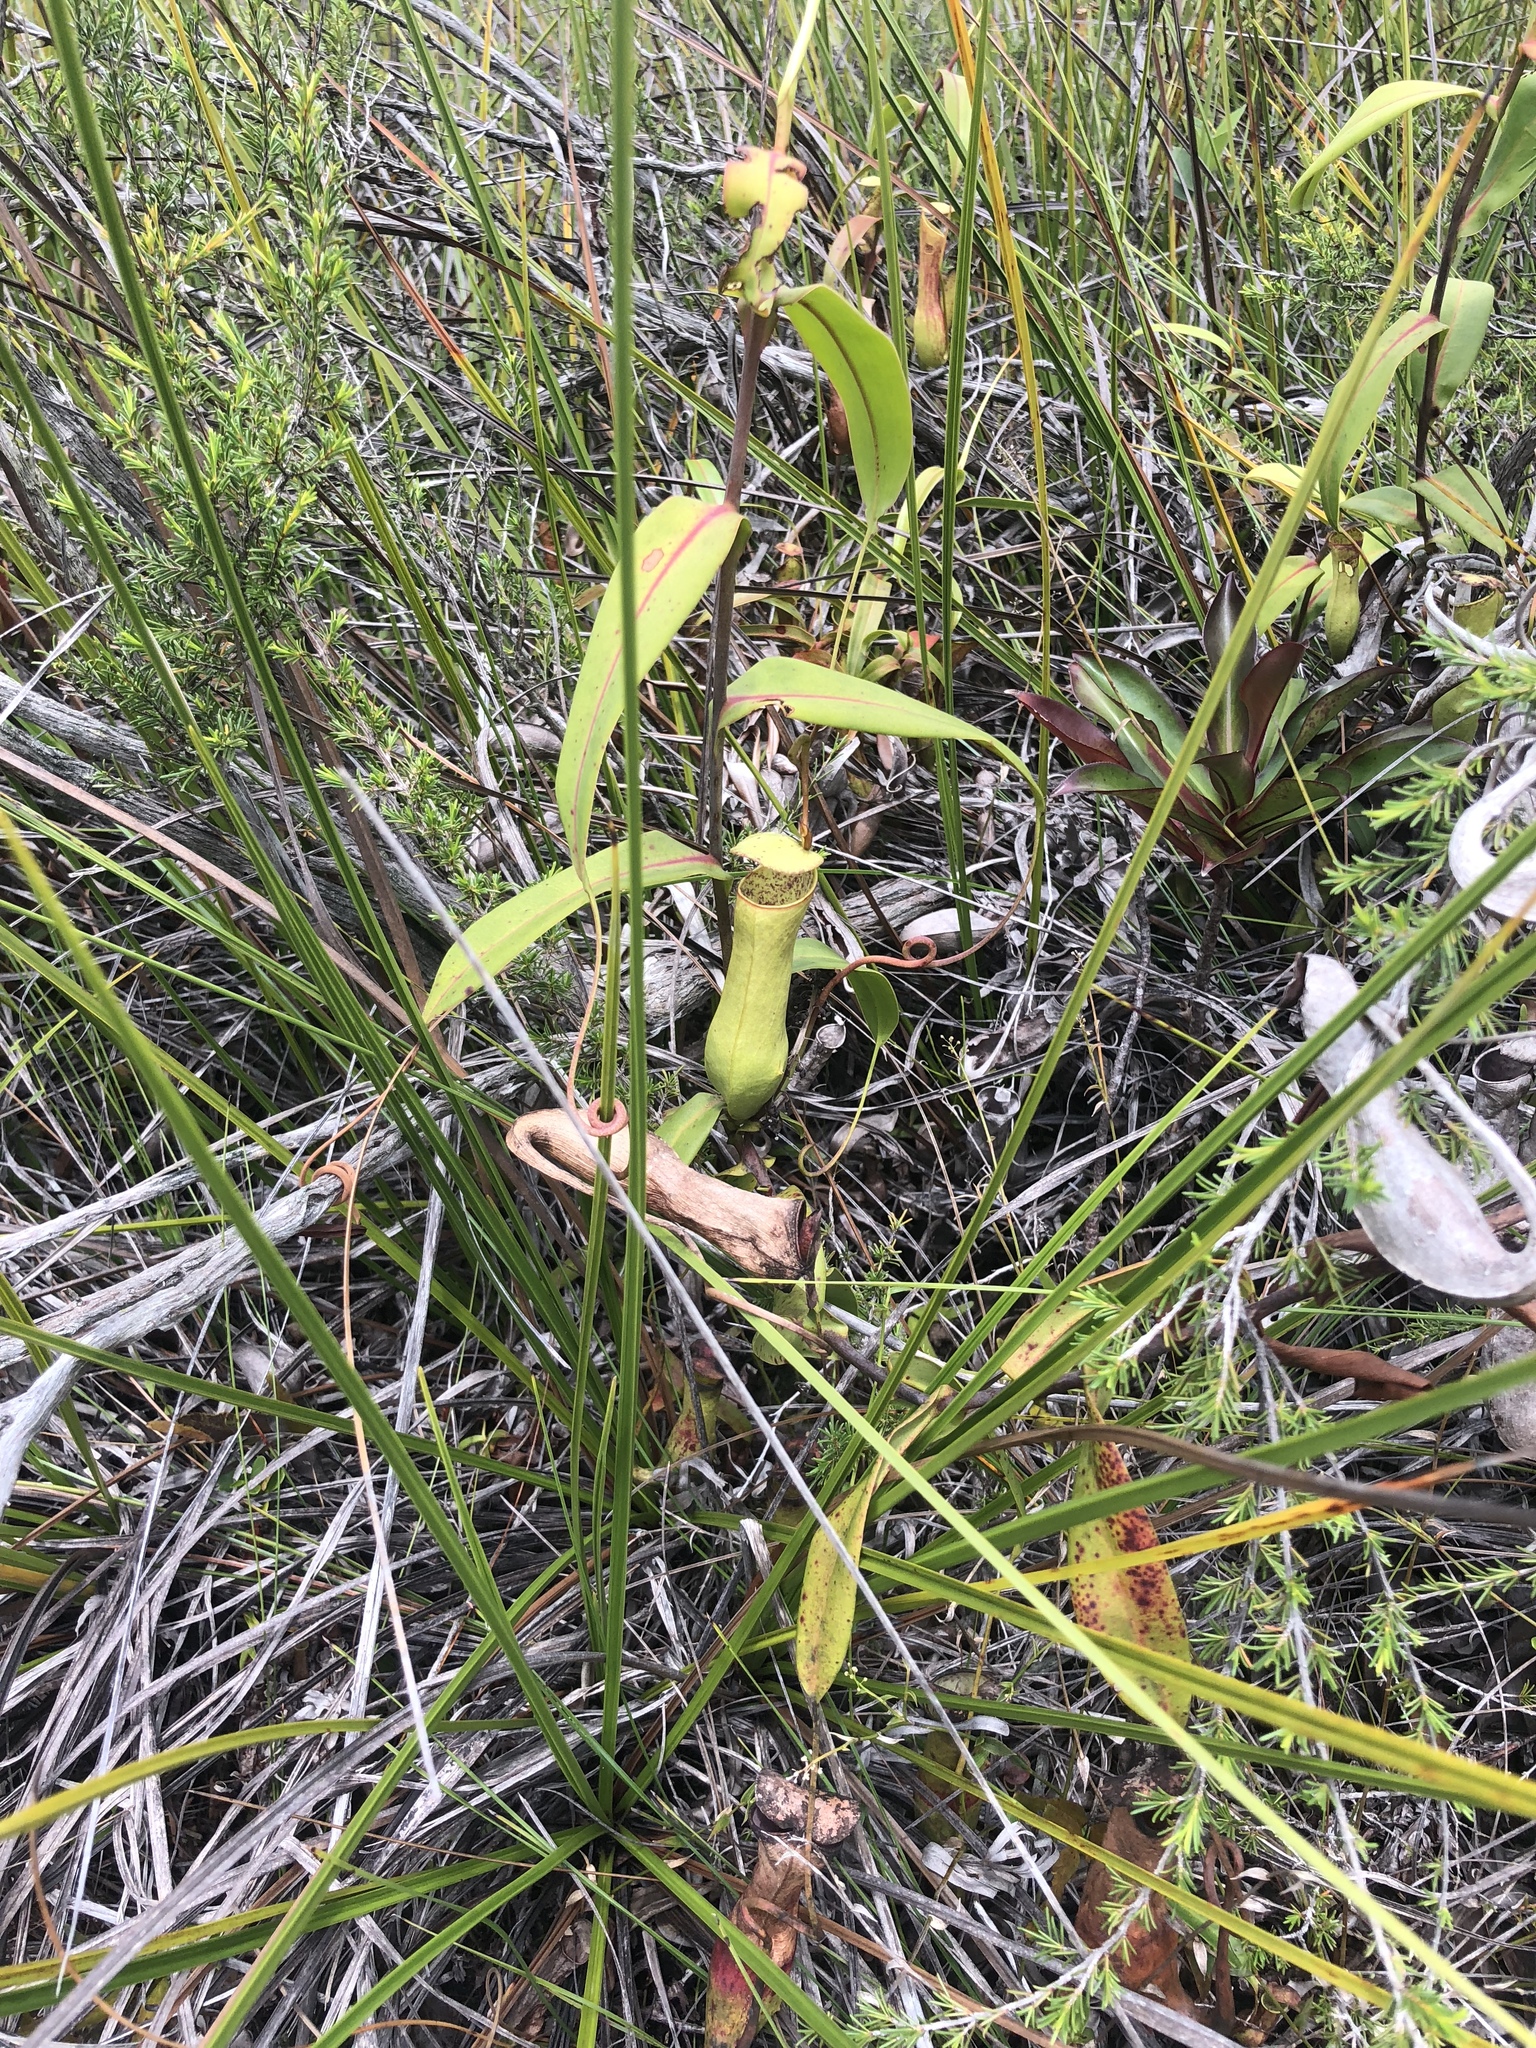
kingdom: Plantae
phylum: Tracheophyta
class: Magnoliopsida
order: Caryophyllales
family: Nepenthaceae
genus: Nepenthes
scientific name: Nepenthes gracilis
